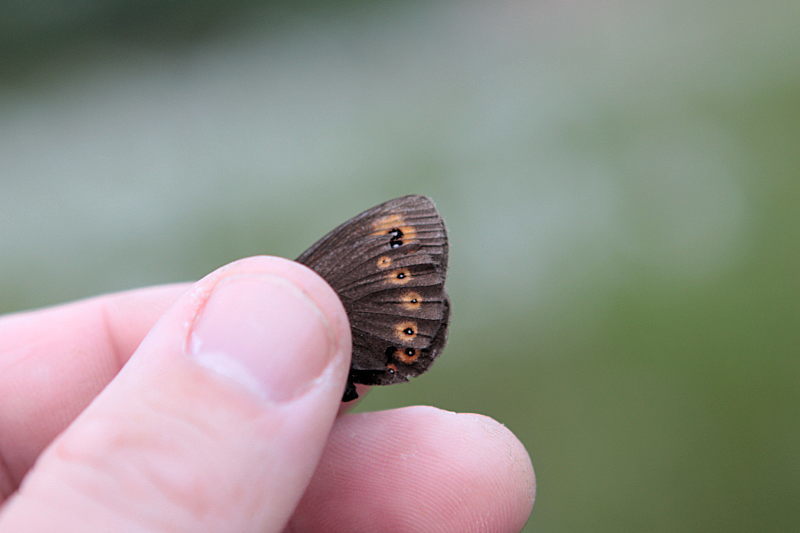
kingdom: Animalia
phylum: Arthropoda
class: Insecta
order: Lepidoptera
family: Nymphalidae
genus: Erebia
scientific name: Erebia medusa
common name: Woodland ringlet
